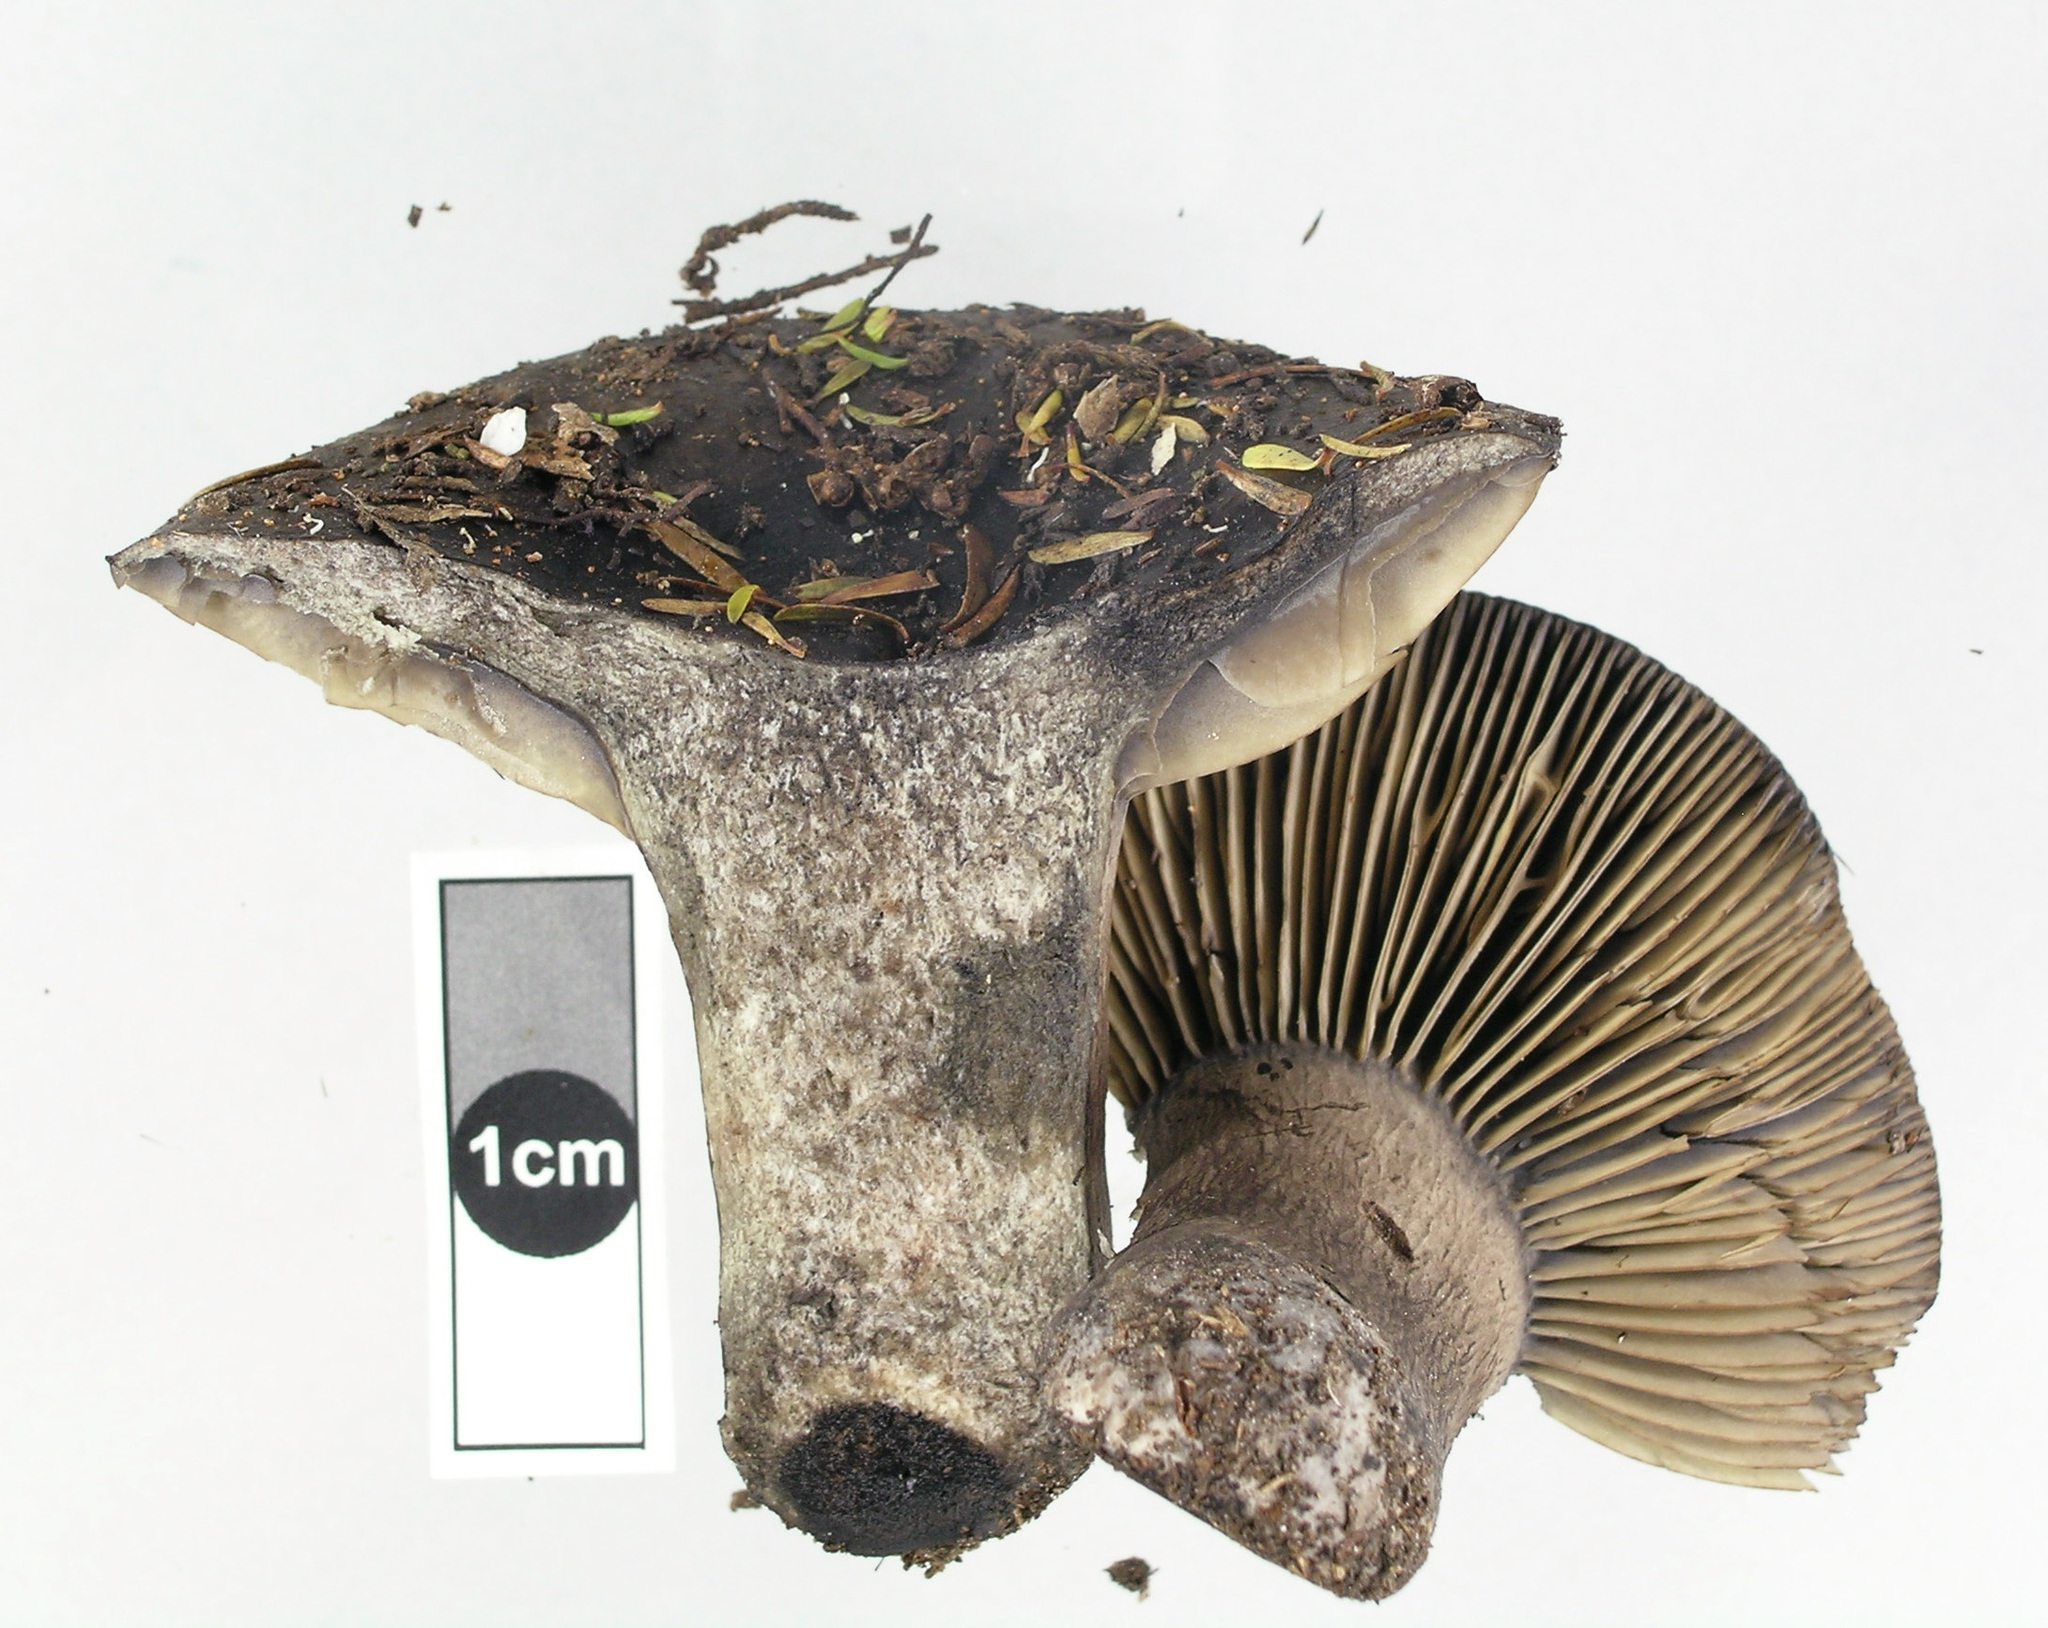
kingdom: Fungi
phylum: Basidiomycota
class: Agaricomycetes
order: Russulales
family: Russulaceae
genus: Russula
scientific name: Russula inquinata
